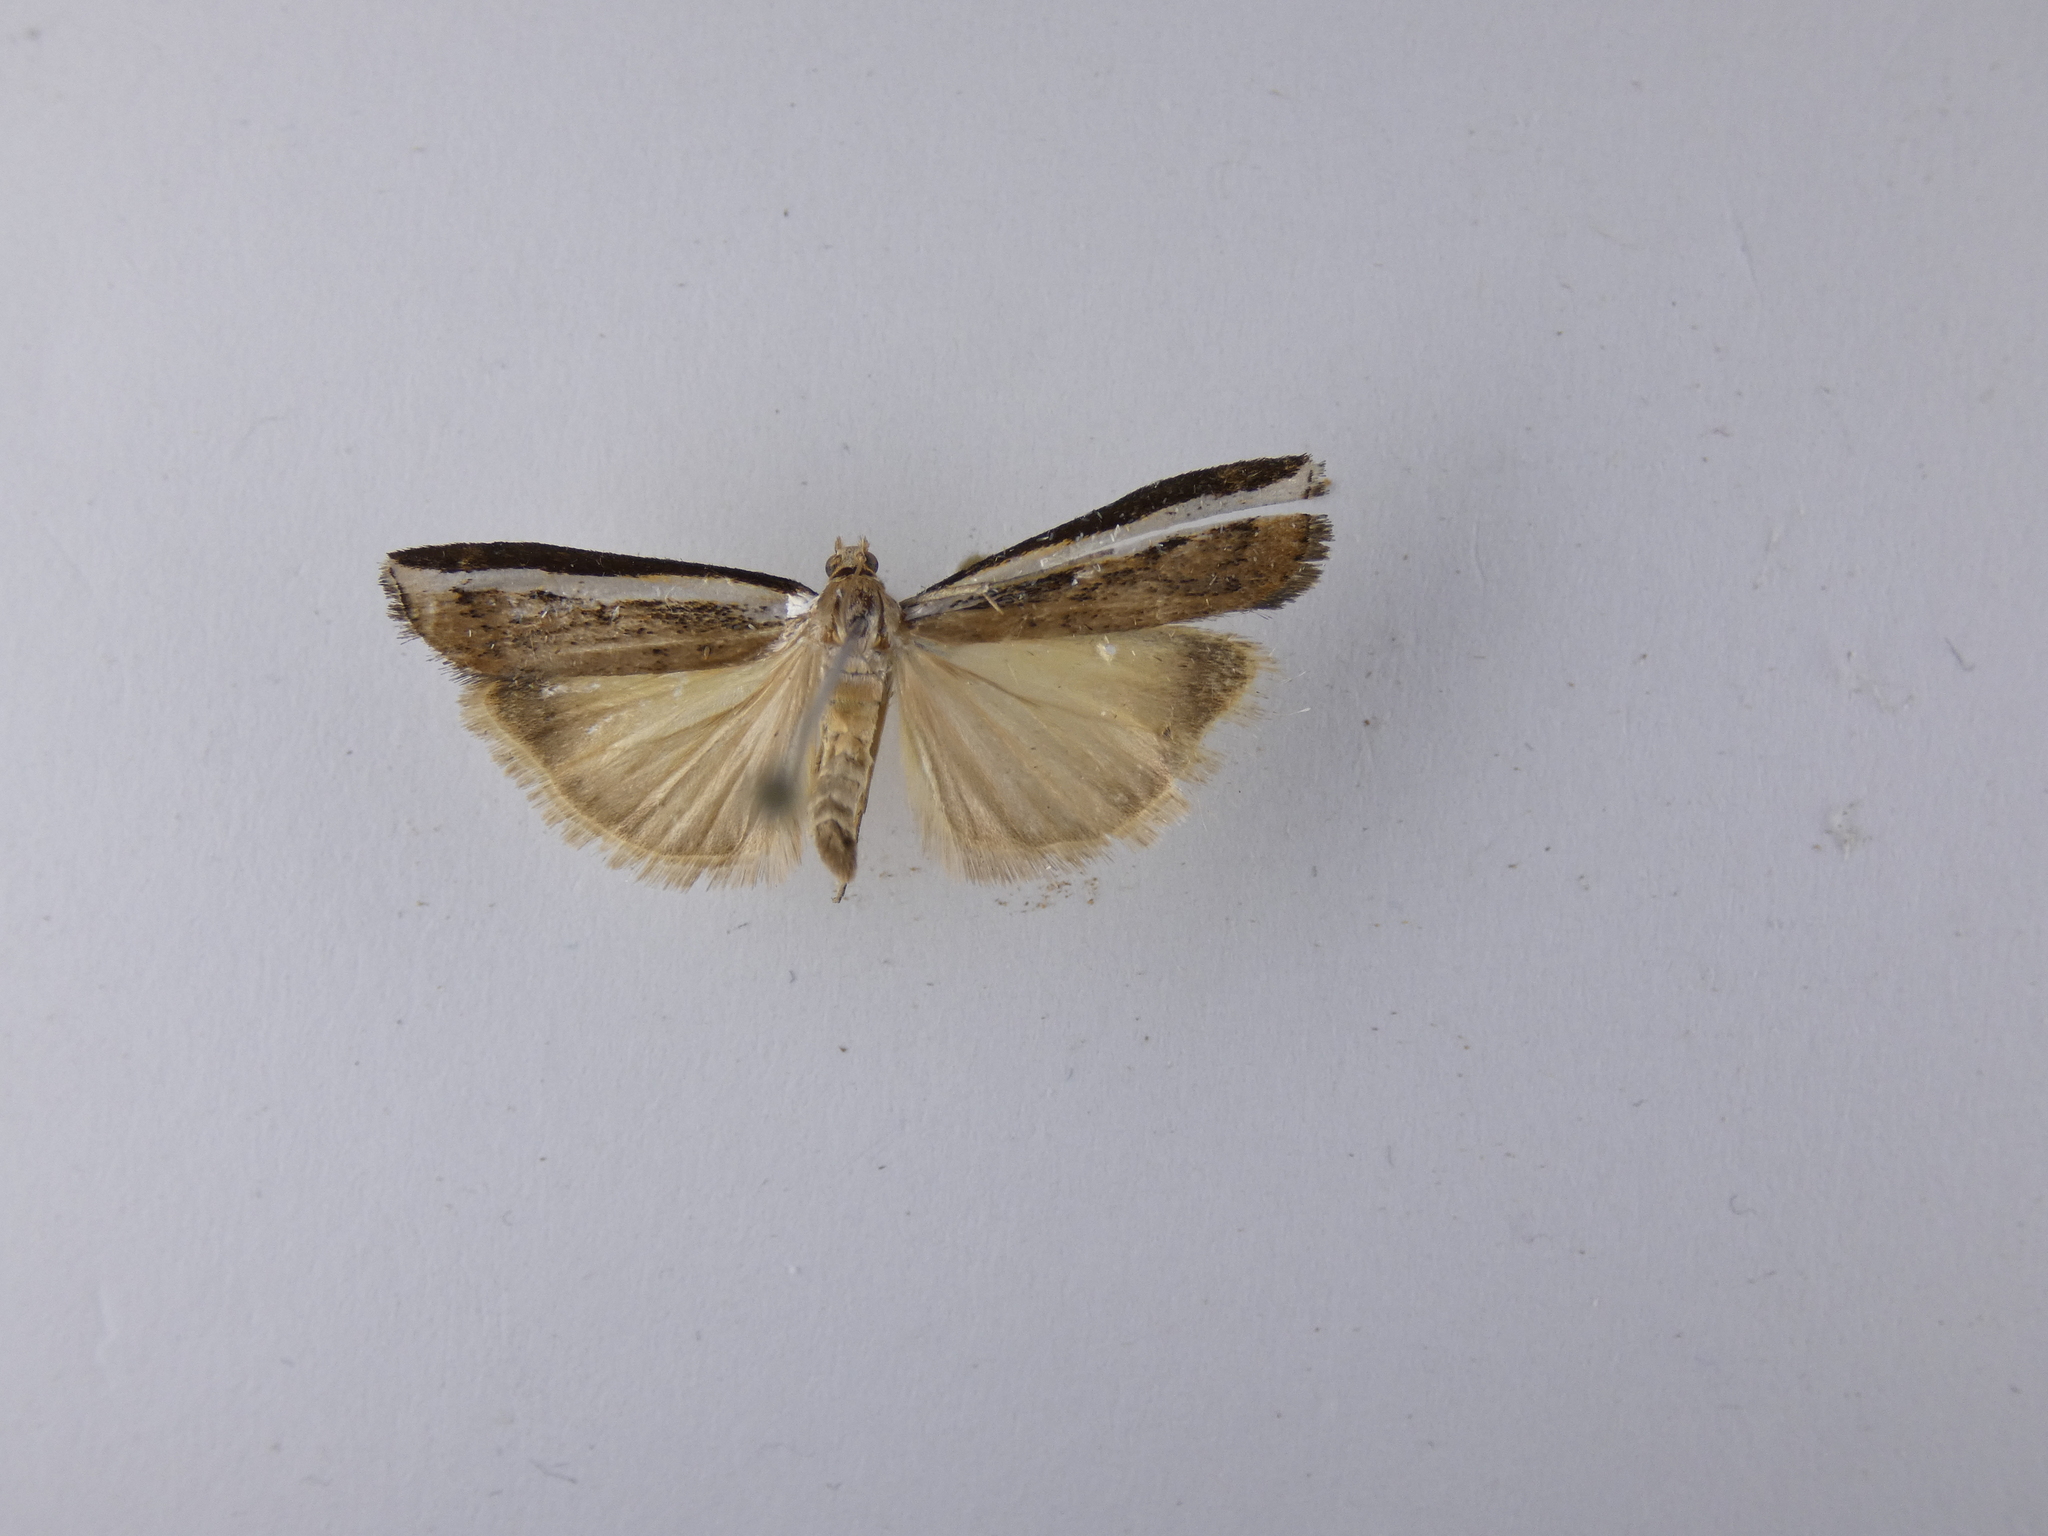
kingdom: Animalia
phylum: Arthropoda
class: Insecta
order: Lepidoptera
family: Crambidae
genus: Orocrambus
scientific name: Orocrambus flexuosellus
